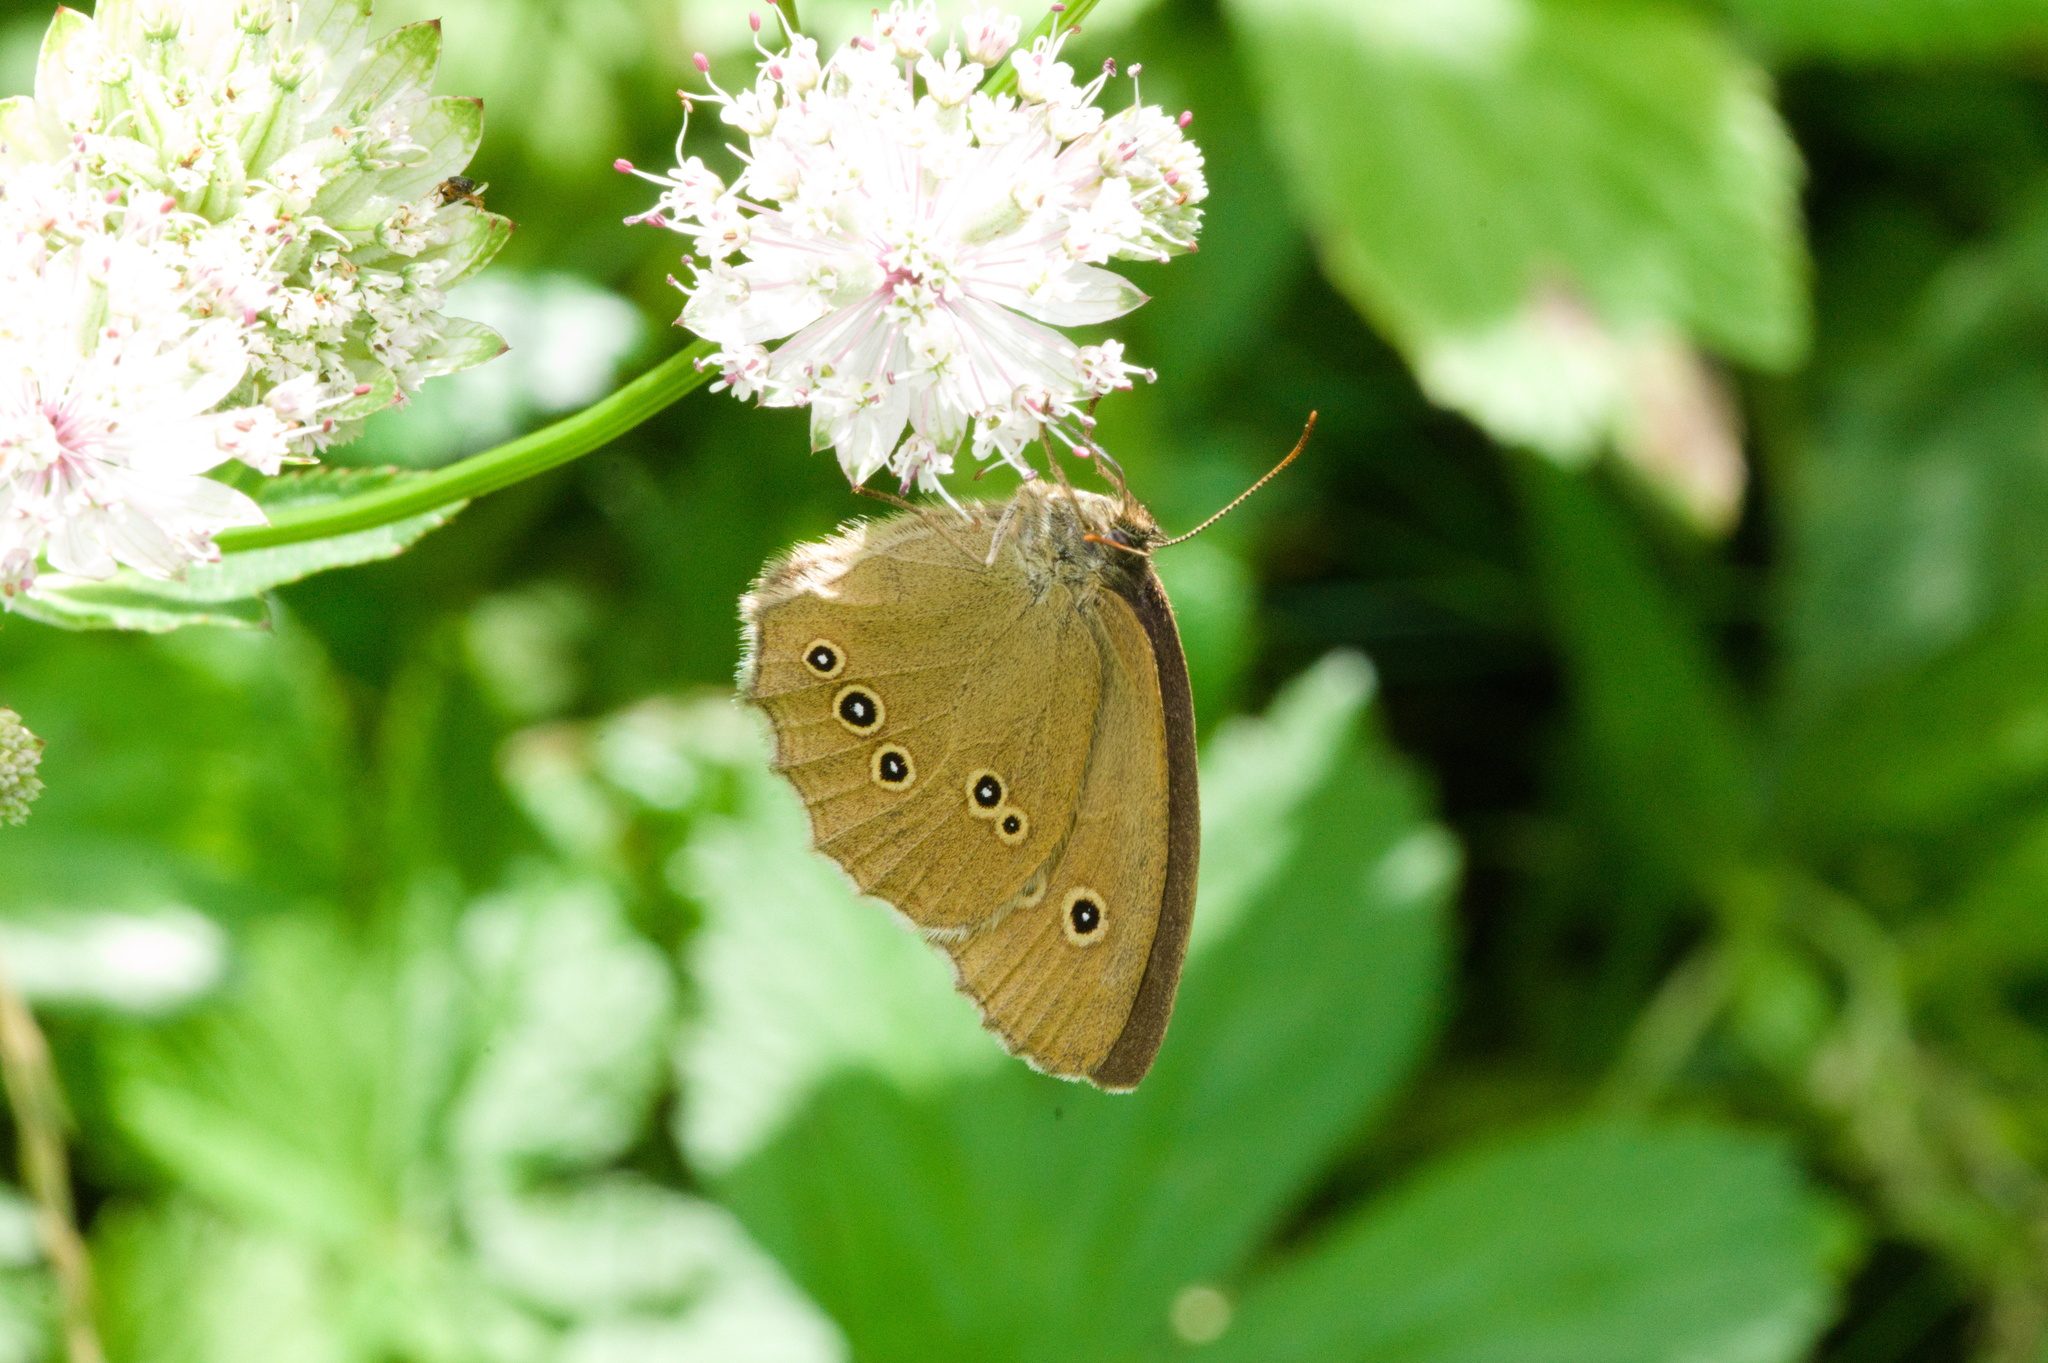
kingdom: Animalia
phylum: Arthropoda
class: Insecta
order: Lepidoptera
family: Nymphalidae
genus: Aphantopus
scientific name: Aphantopus hyperantus
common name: Ringlet
